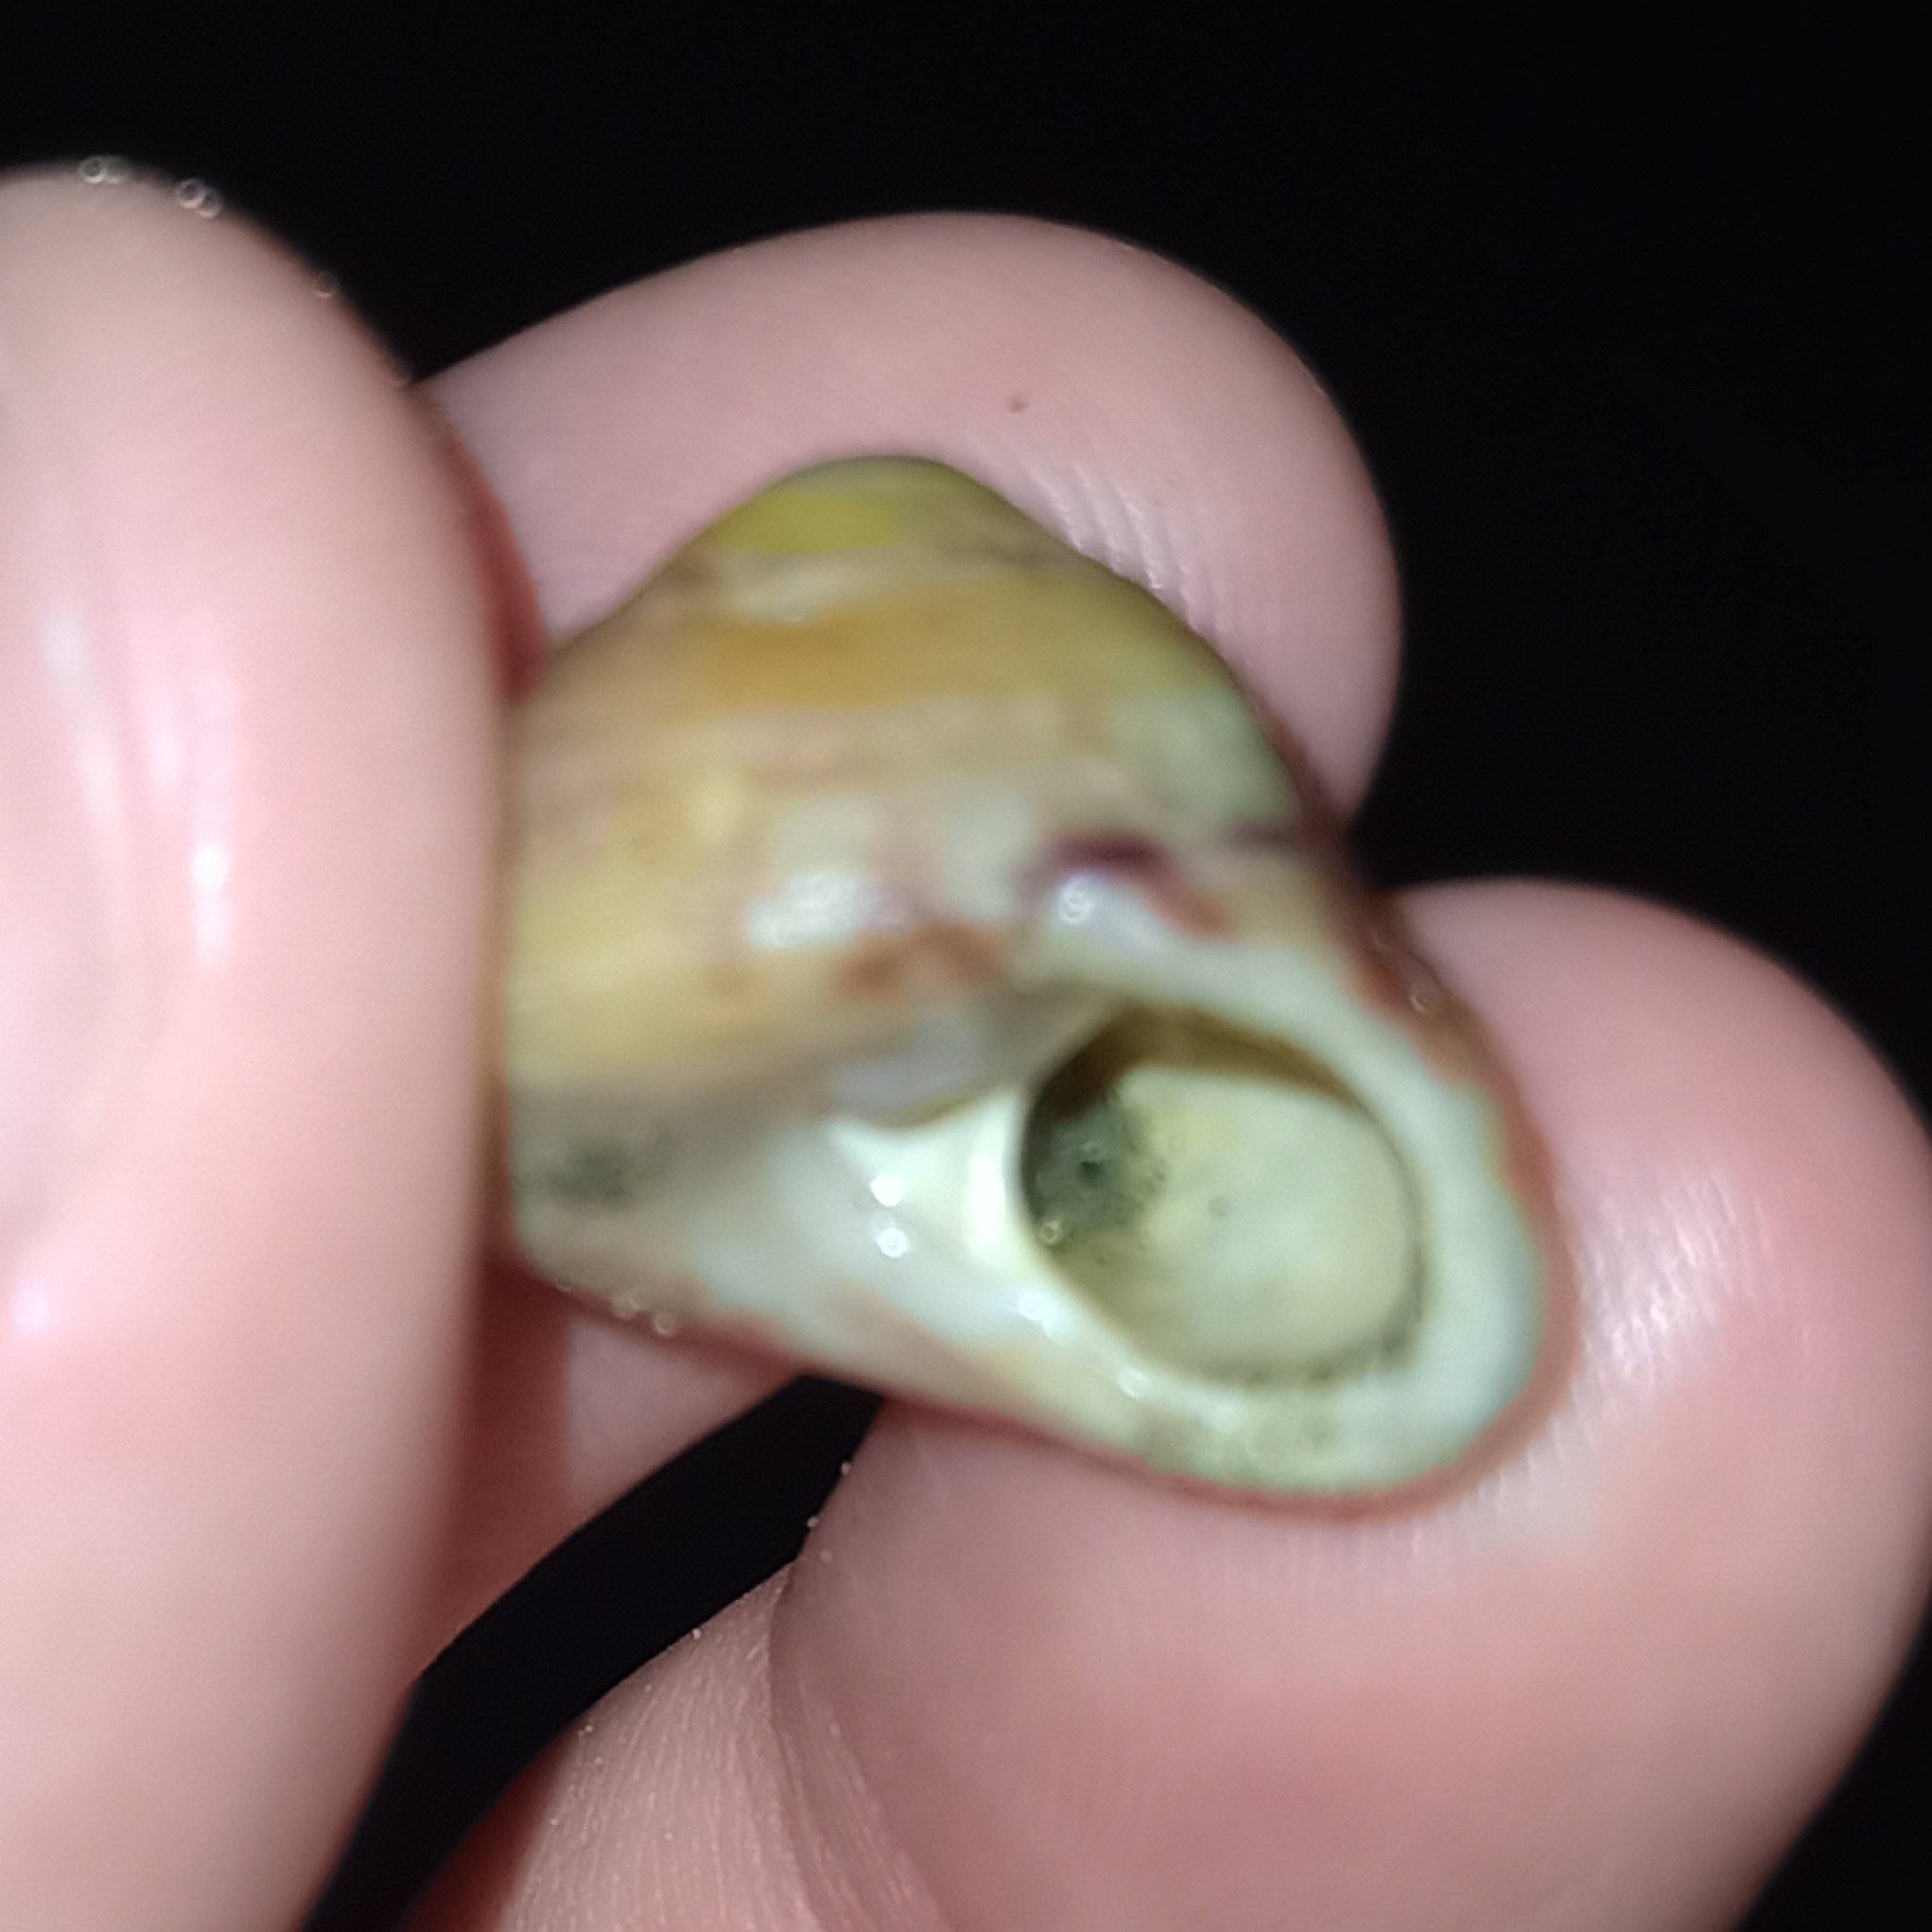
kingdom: Animalia
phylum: Mollusca
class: Gastropoda
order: Trochida
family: Tegulidae
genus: Agathistoma
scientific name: Agathistoma viridulum
